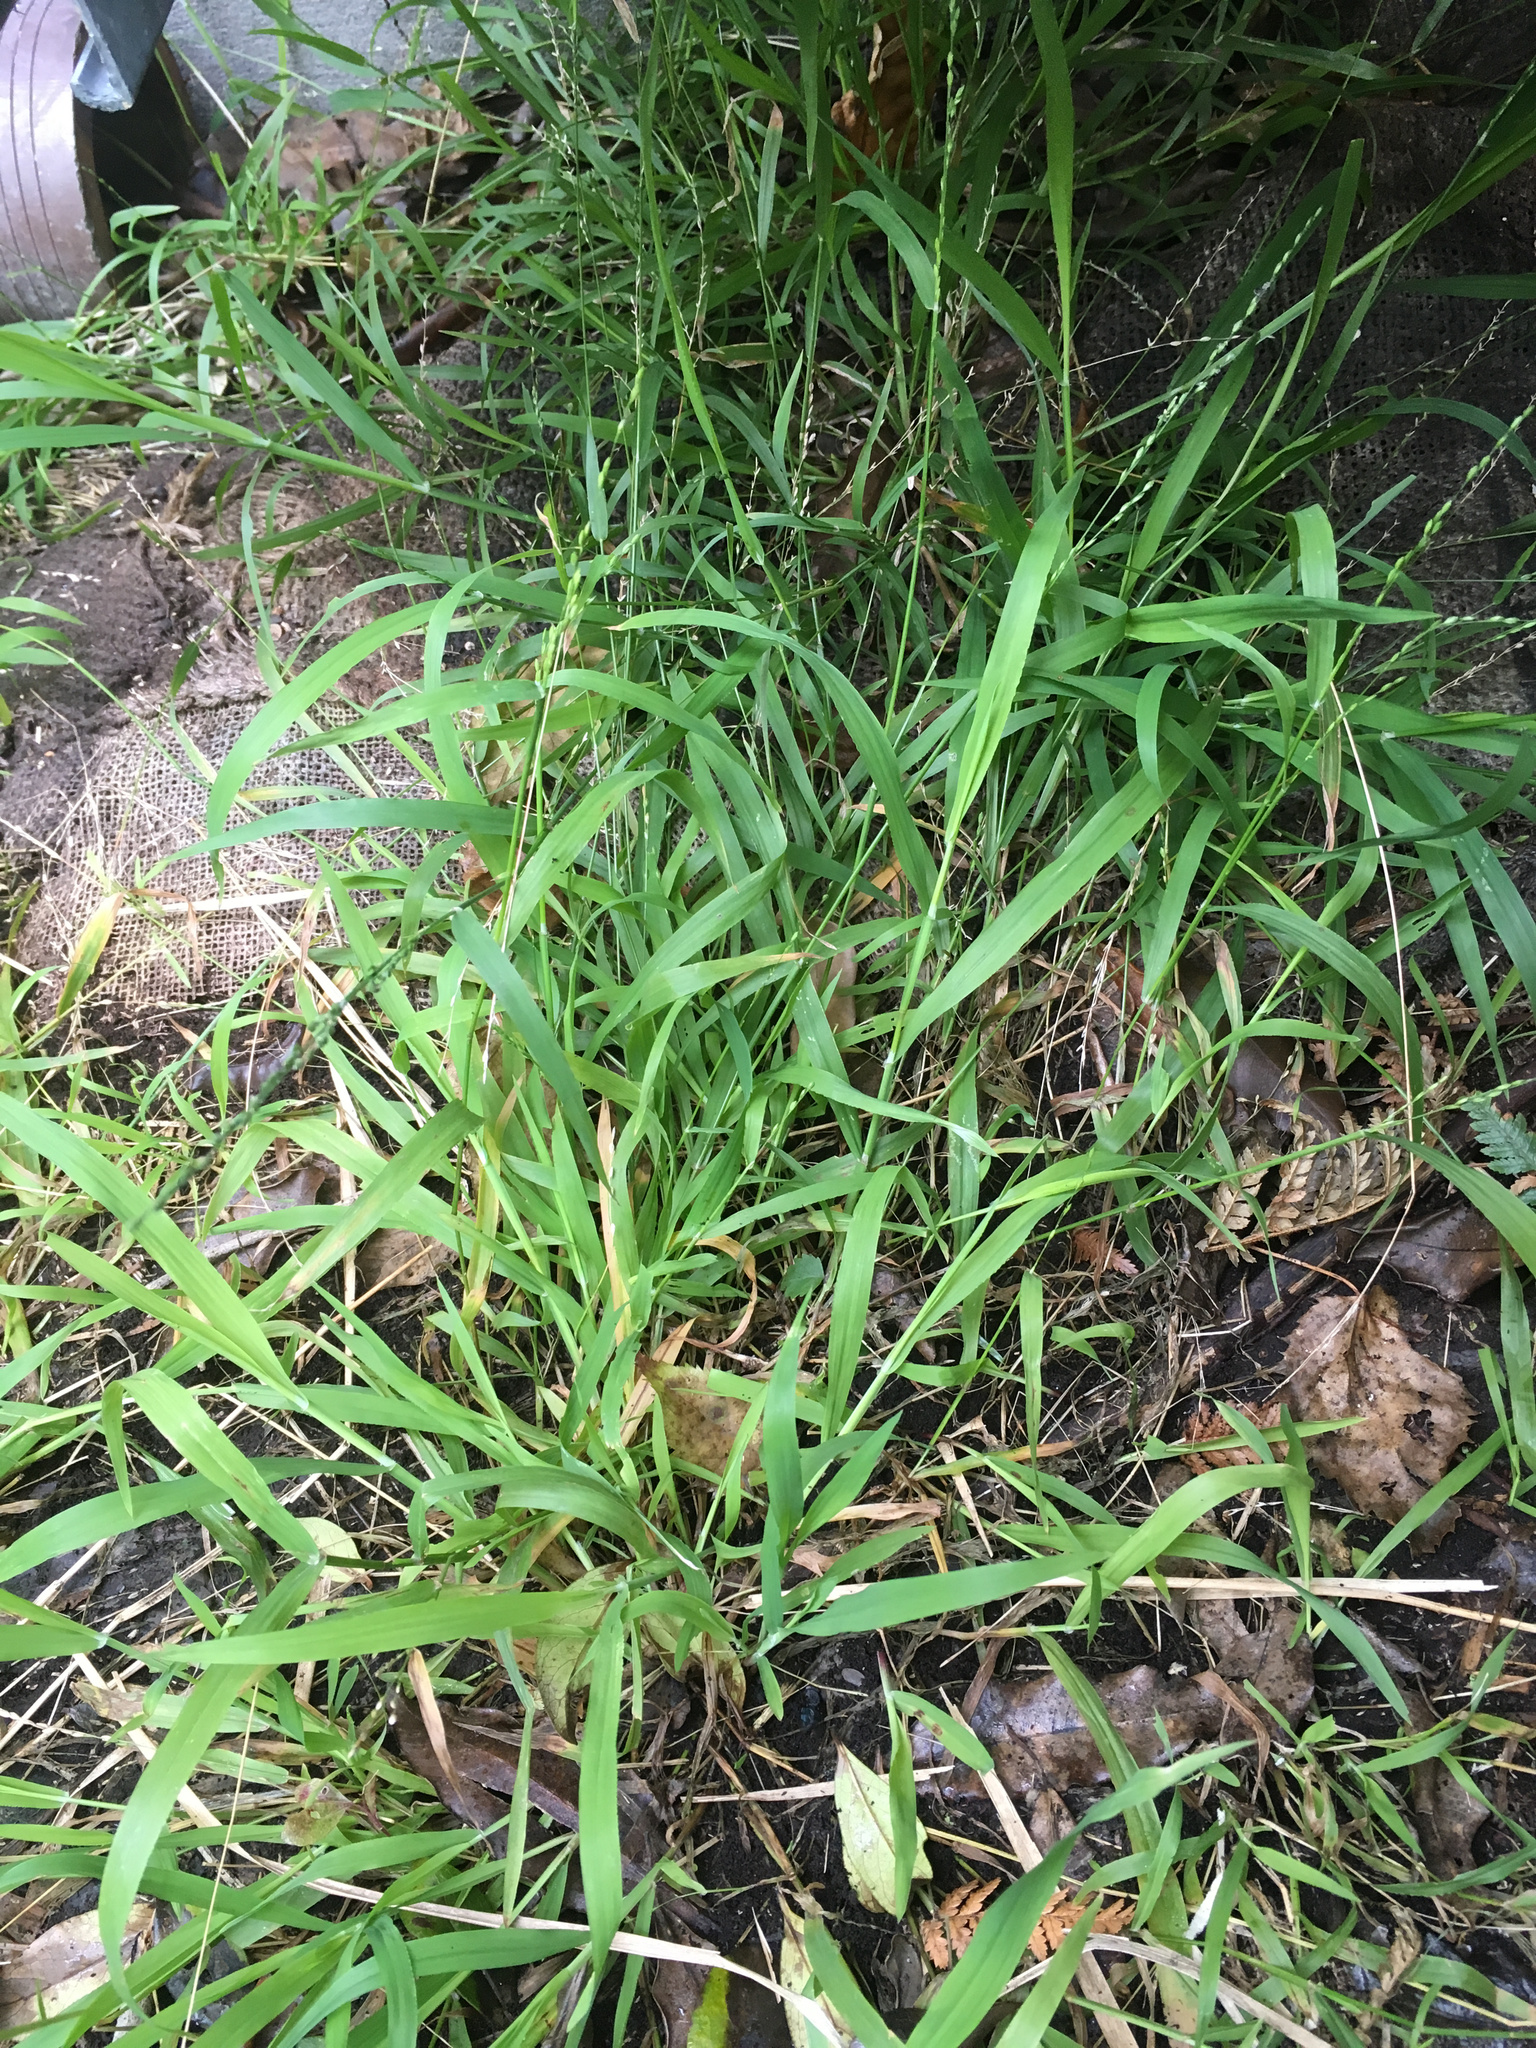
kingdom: Plantae
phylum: Tracheophyta
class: Liliopsida
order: Poales
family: Poaceae
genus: Ehrharta
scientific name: Ehrharta erecta
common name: Panic veldtgrass
